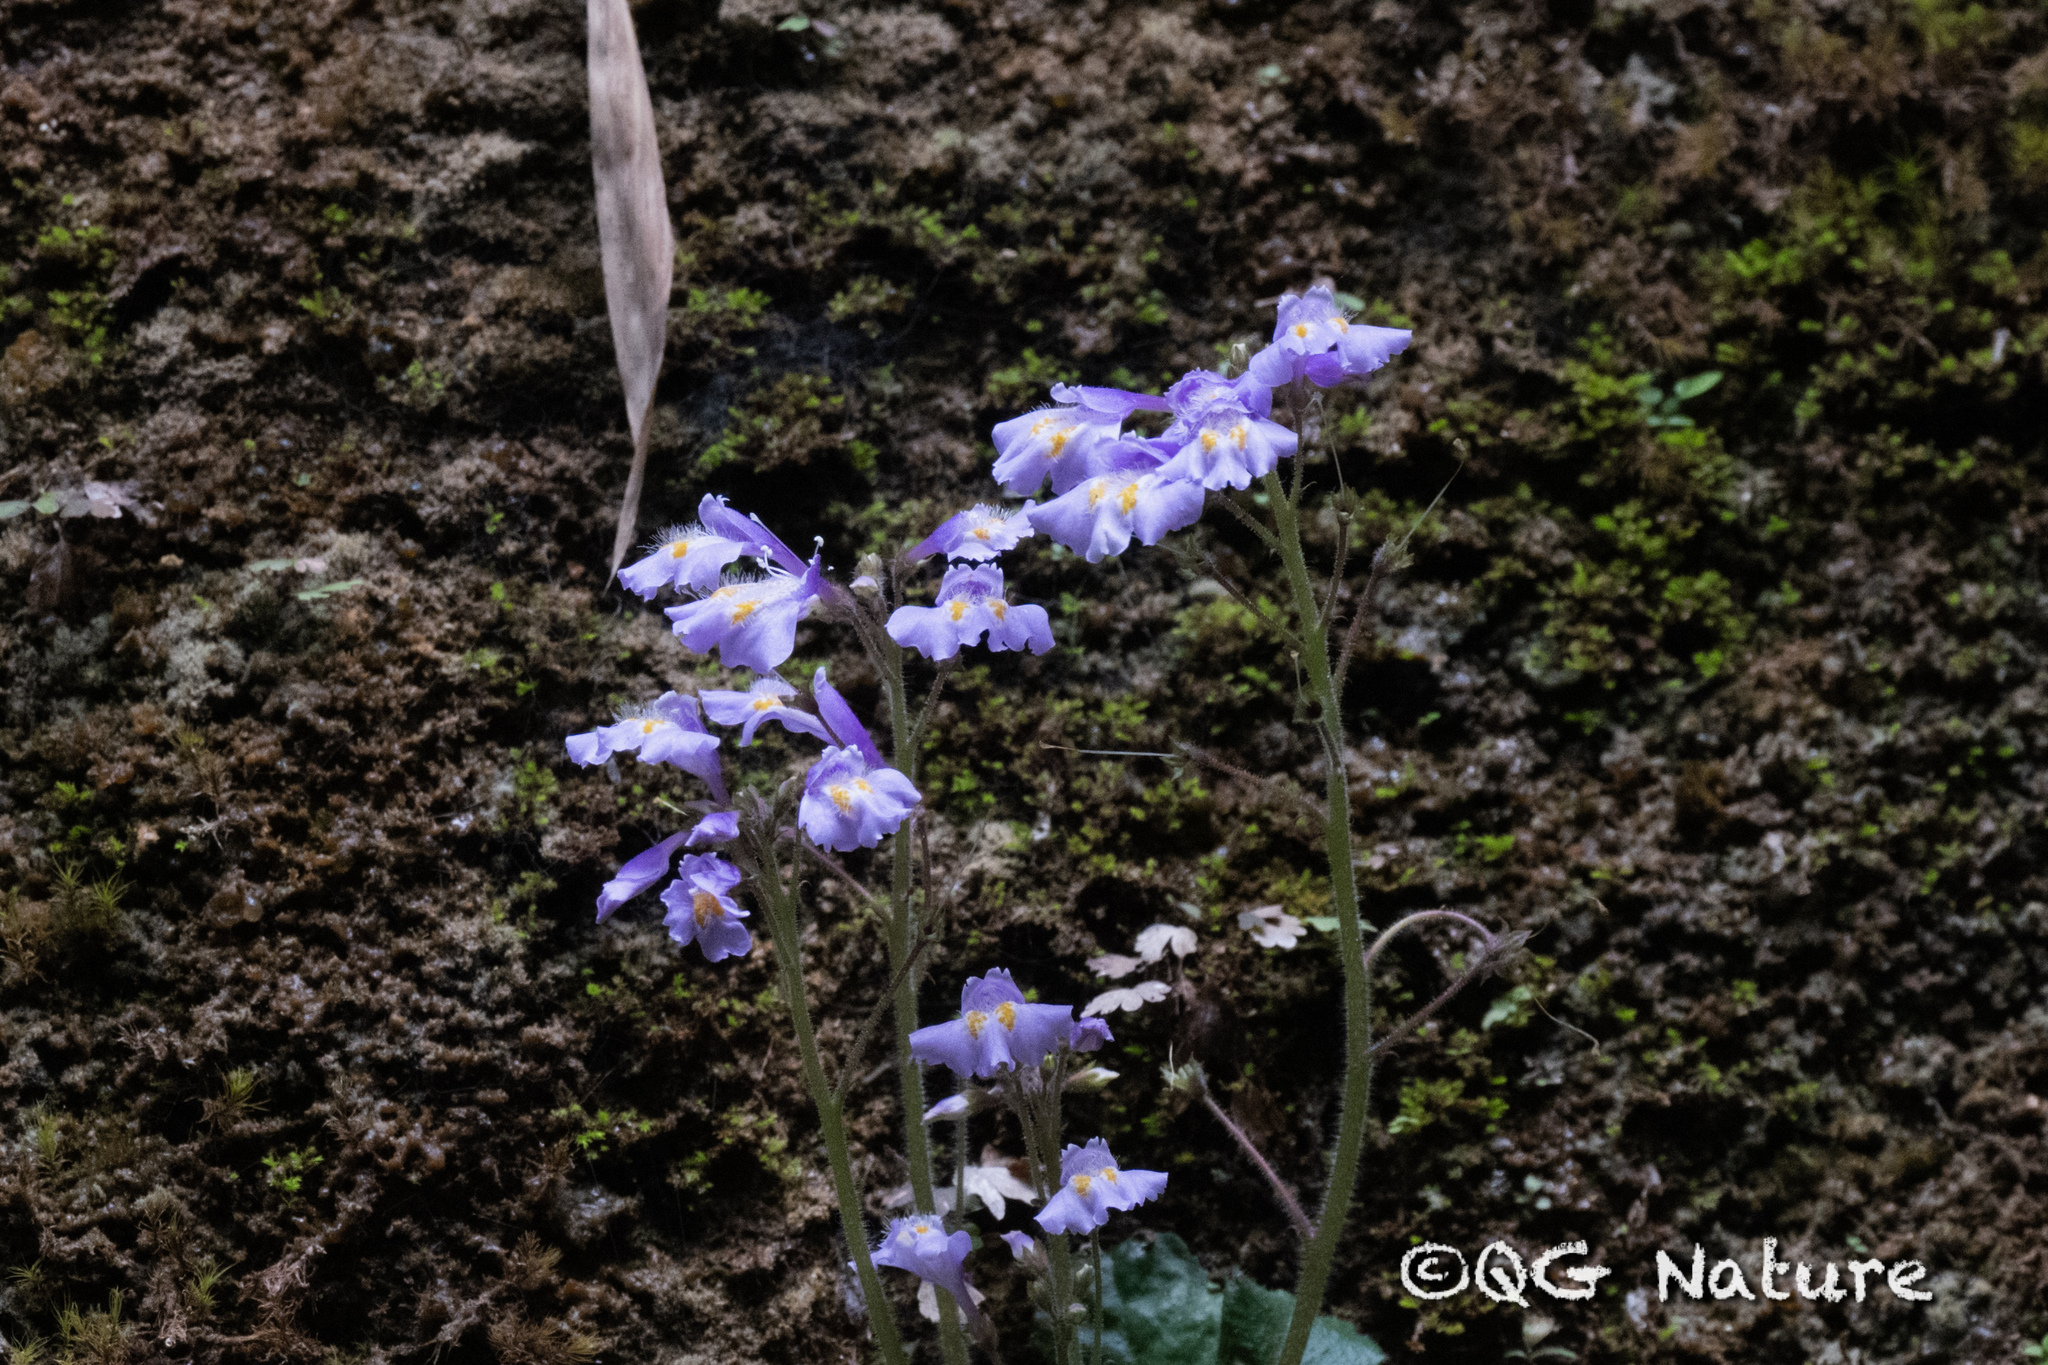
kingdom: Plantae
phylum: Tracheophyta
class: Magnoliopsida
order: Lamiales
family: Mazaceae
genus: Mazus
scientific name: Mazus pulchellus
